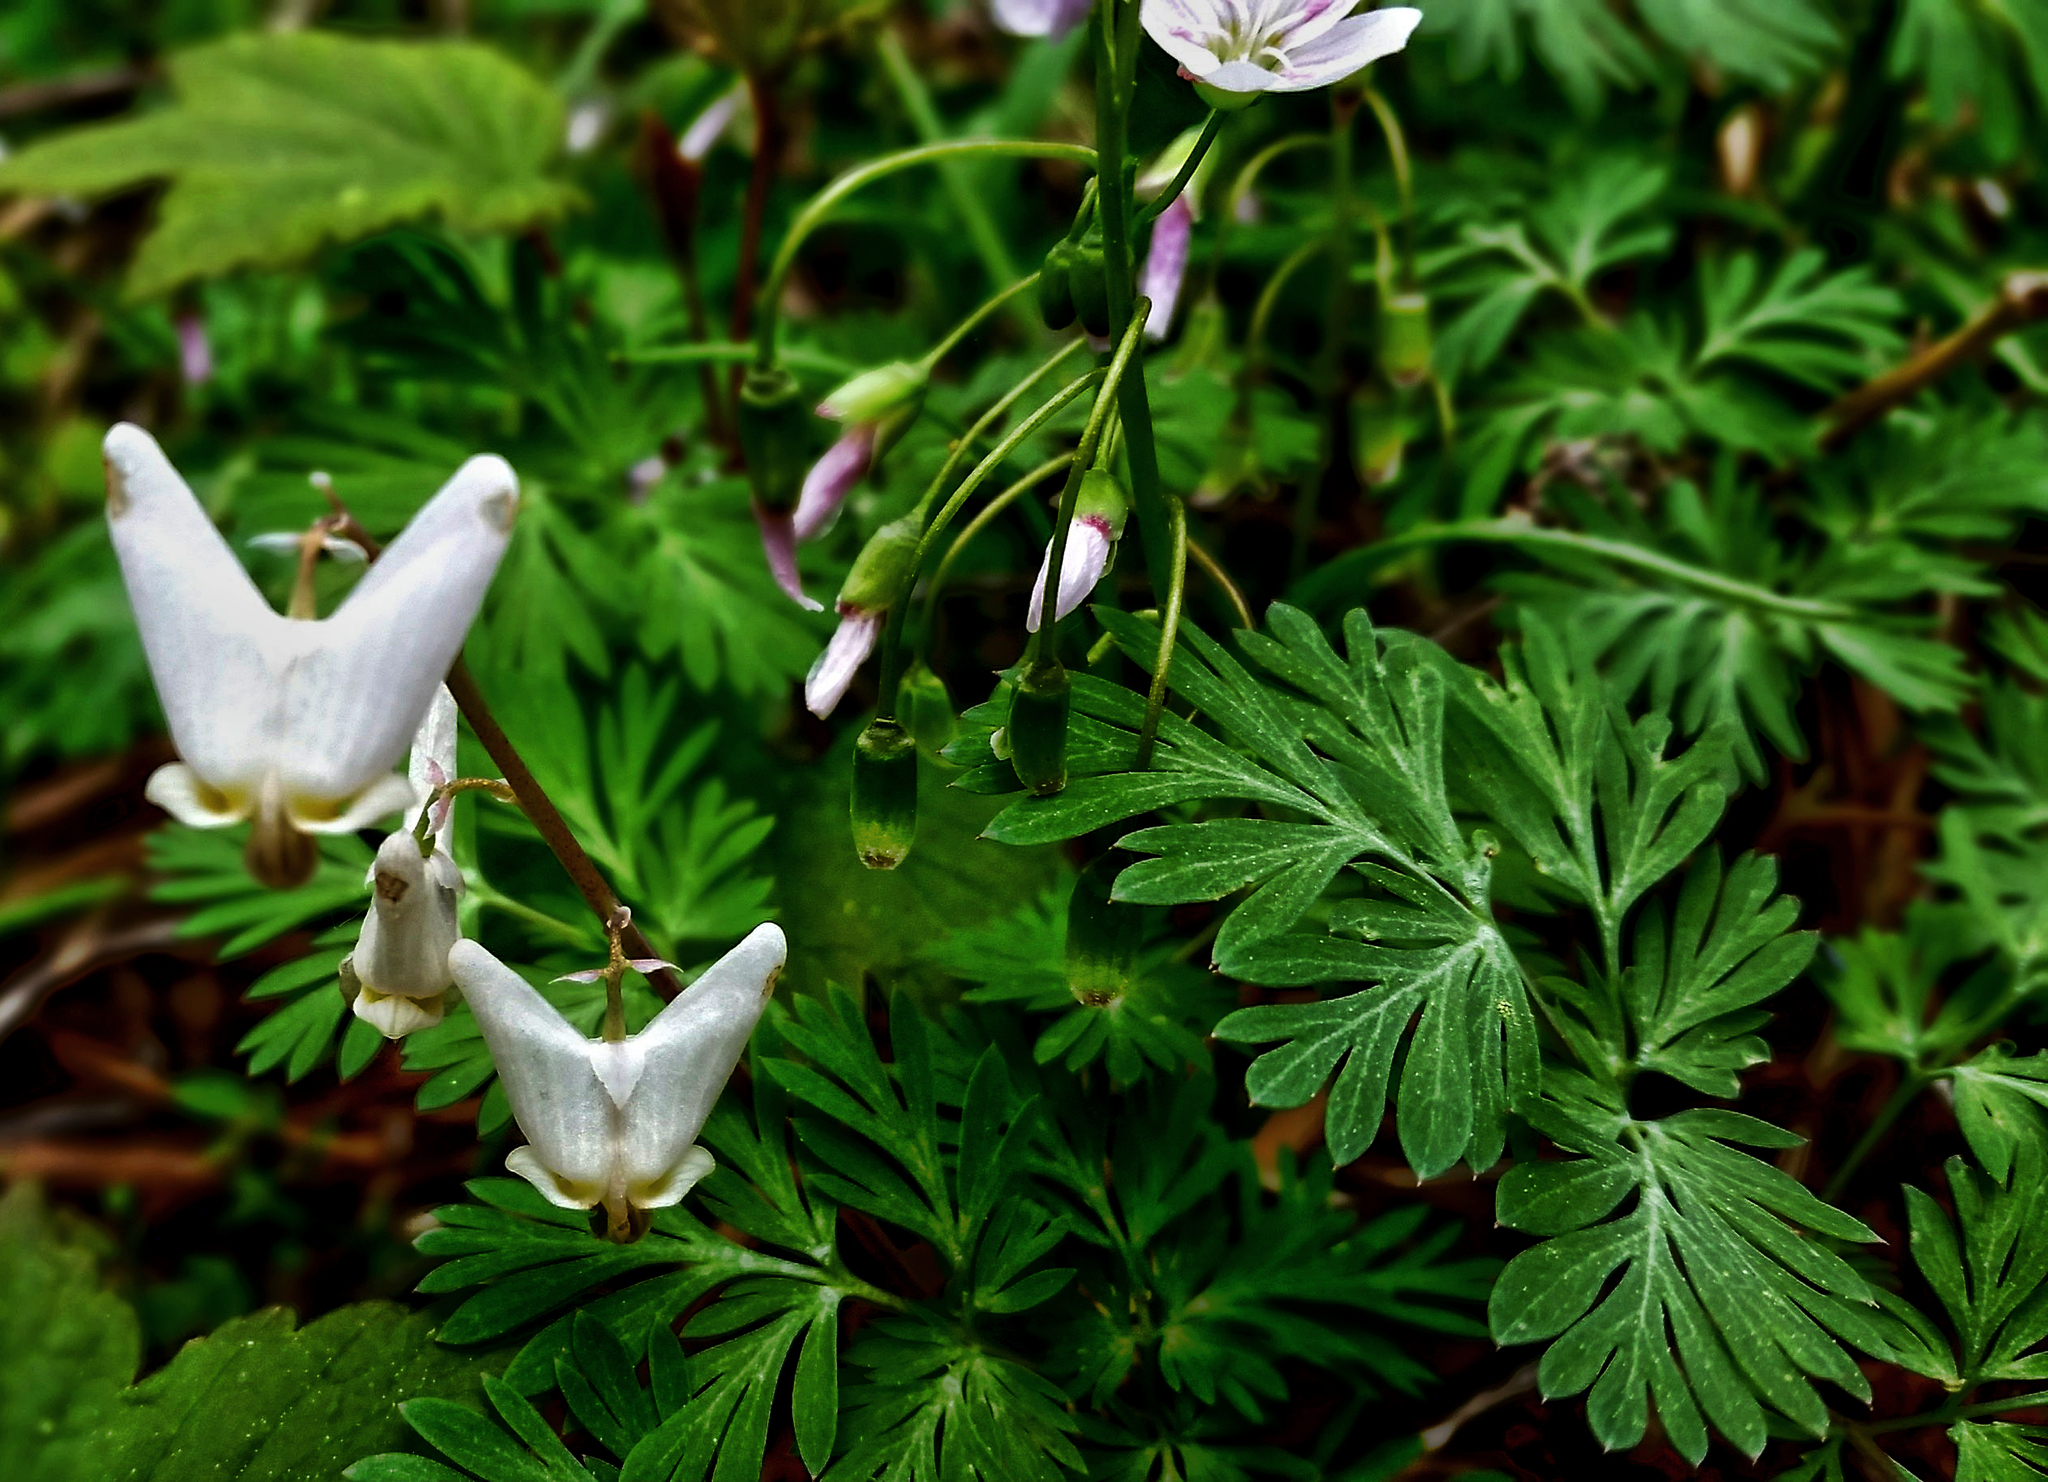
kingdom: Plantae
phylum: Tracheophyta
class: Magnoliopsida
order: Ranunculales
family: Papaveraceae
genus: Dicentra
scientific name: Dicentra cucullaria
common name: Dutchman's breeches
